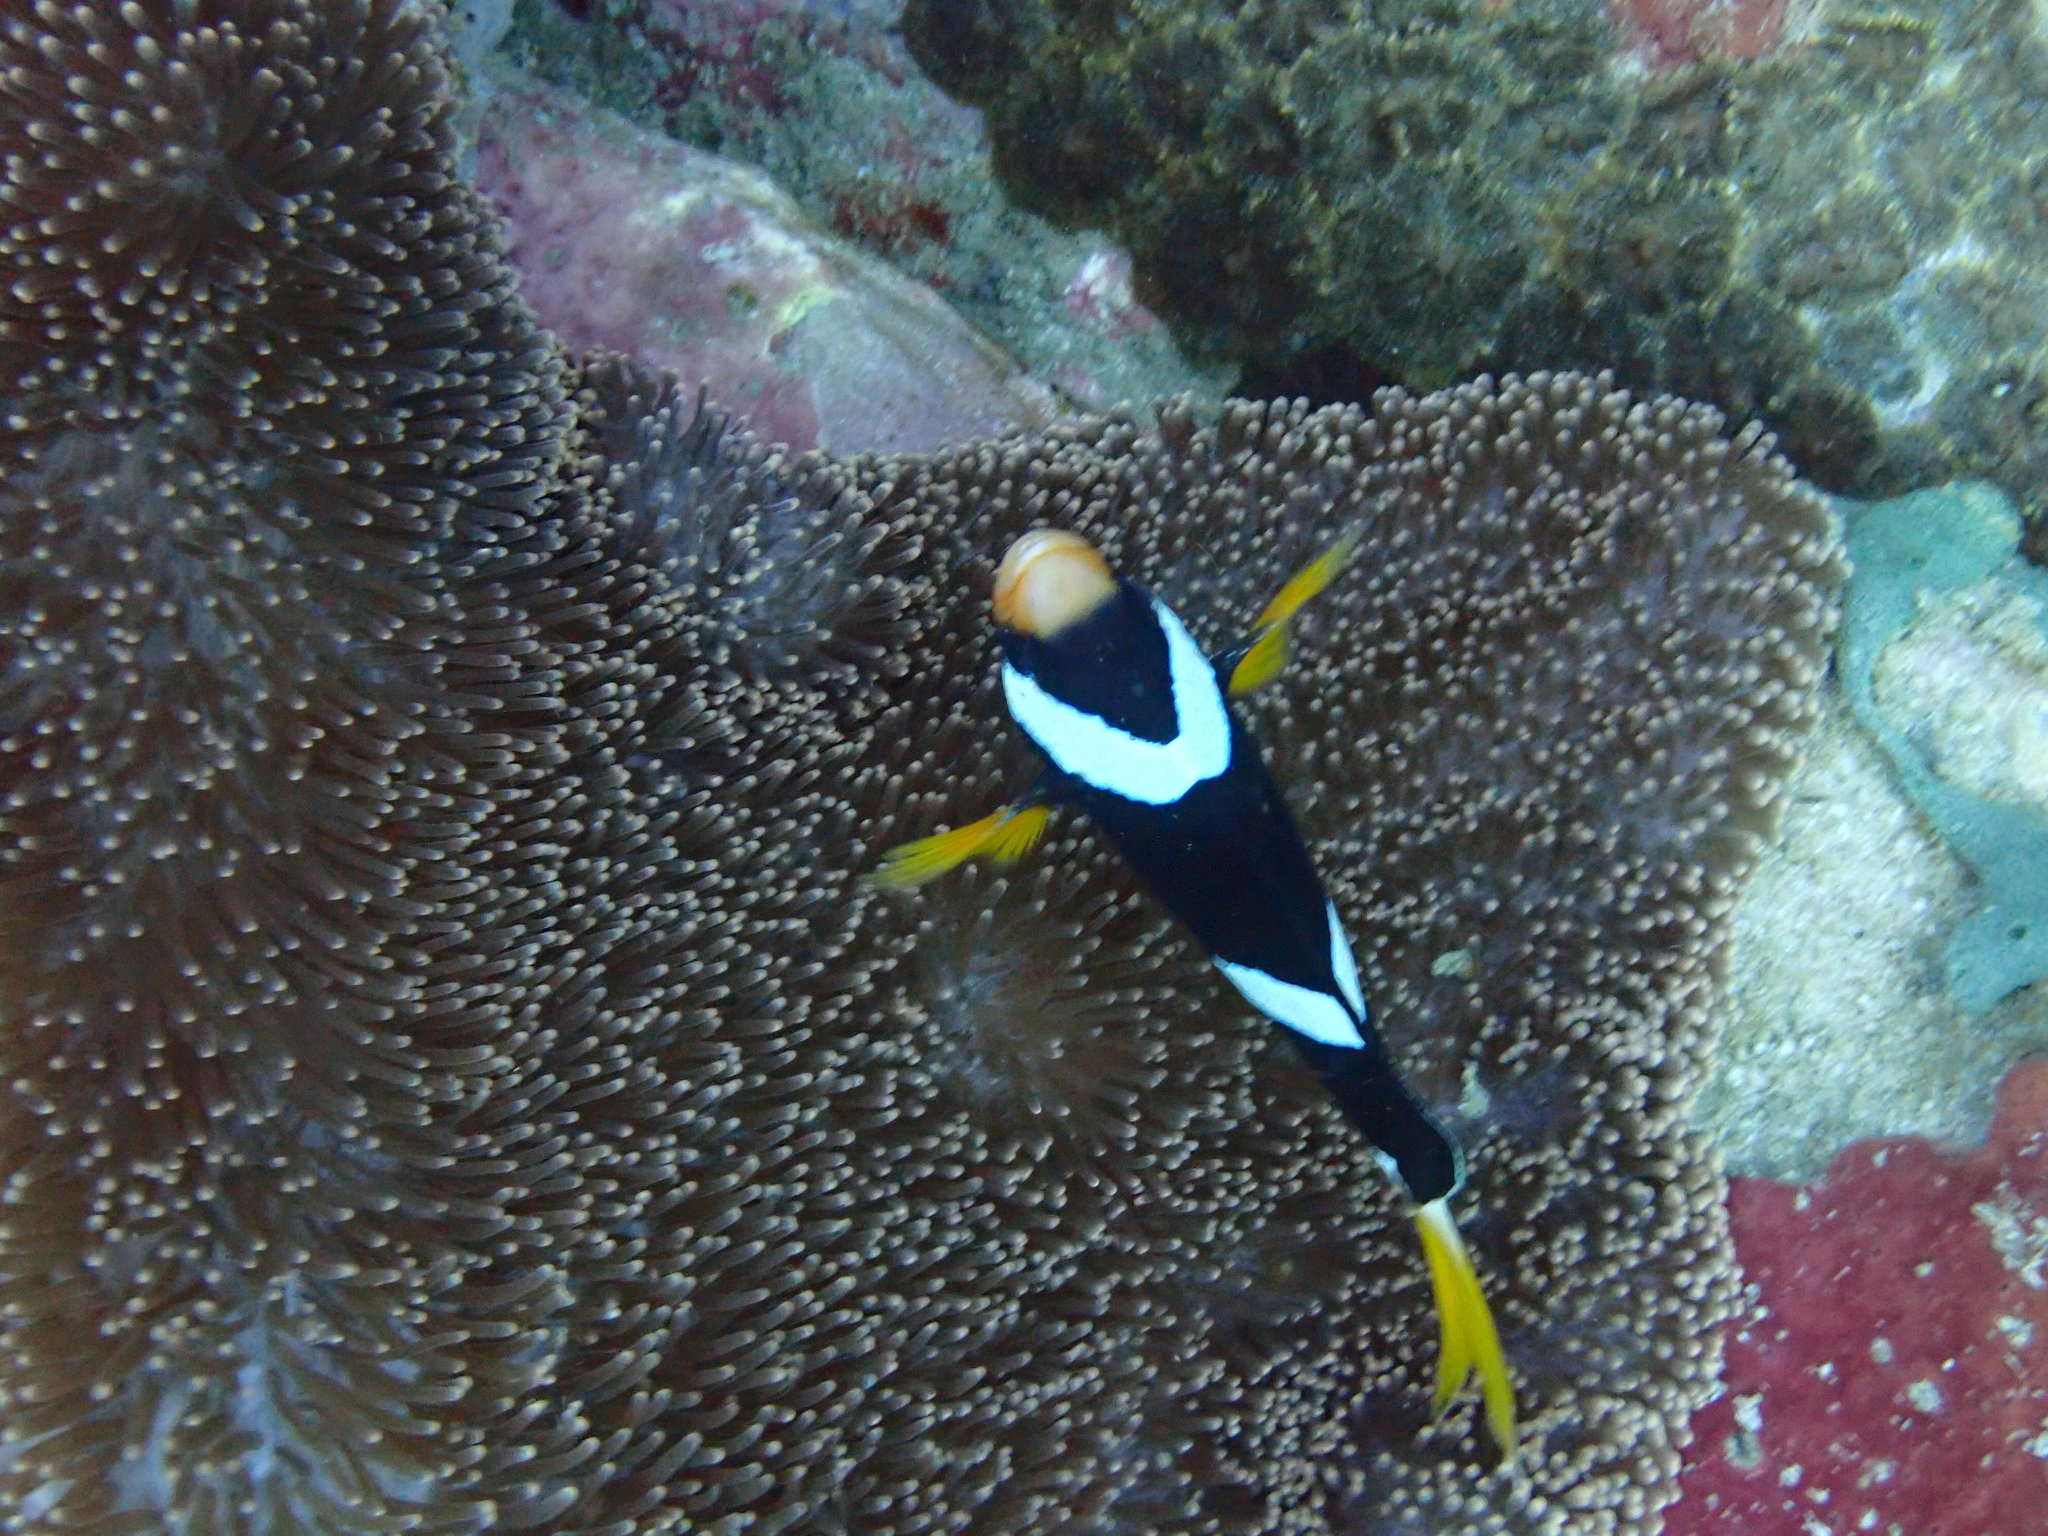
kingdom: Animalia
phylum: Chordata
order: Perciformes
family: Pomacentridae
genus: Amphiprion
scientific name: Amphiprion clarkii
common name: Clark's anemonefish
